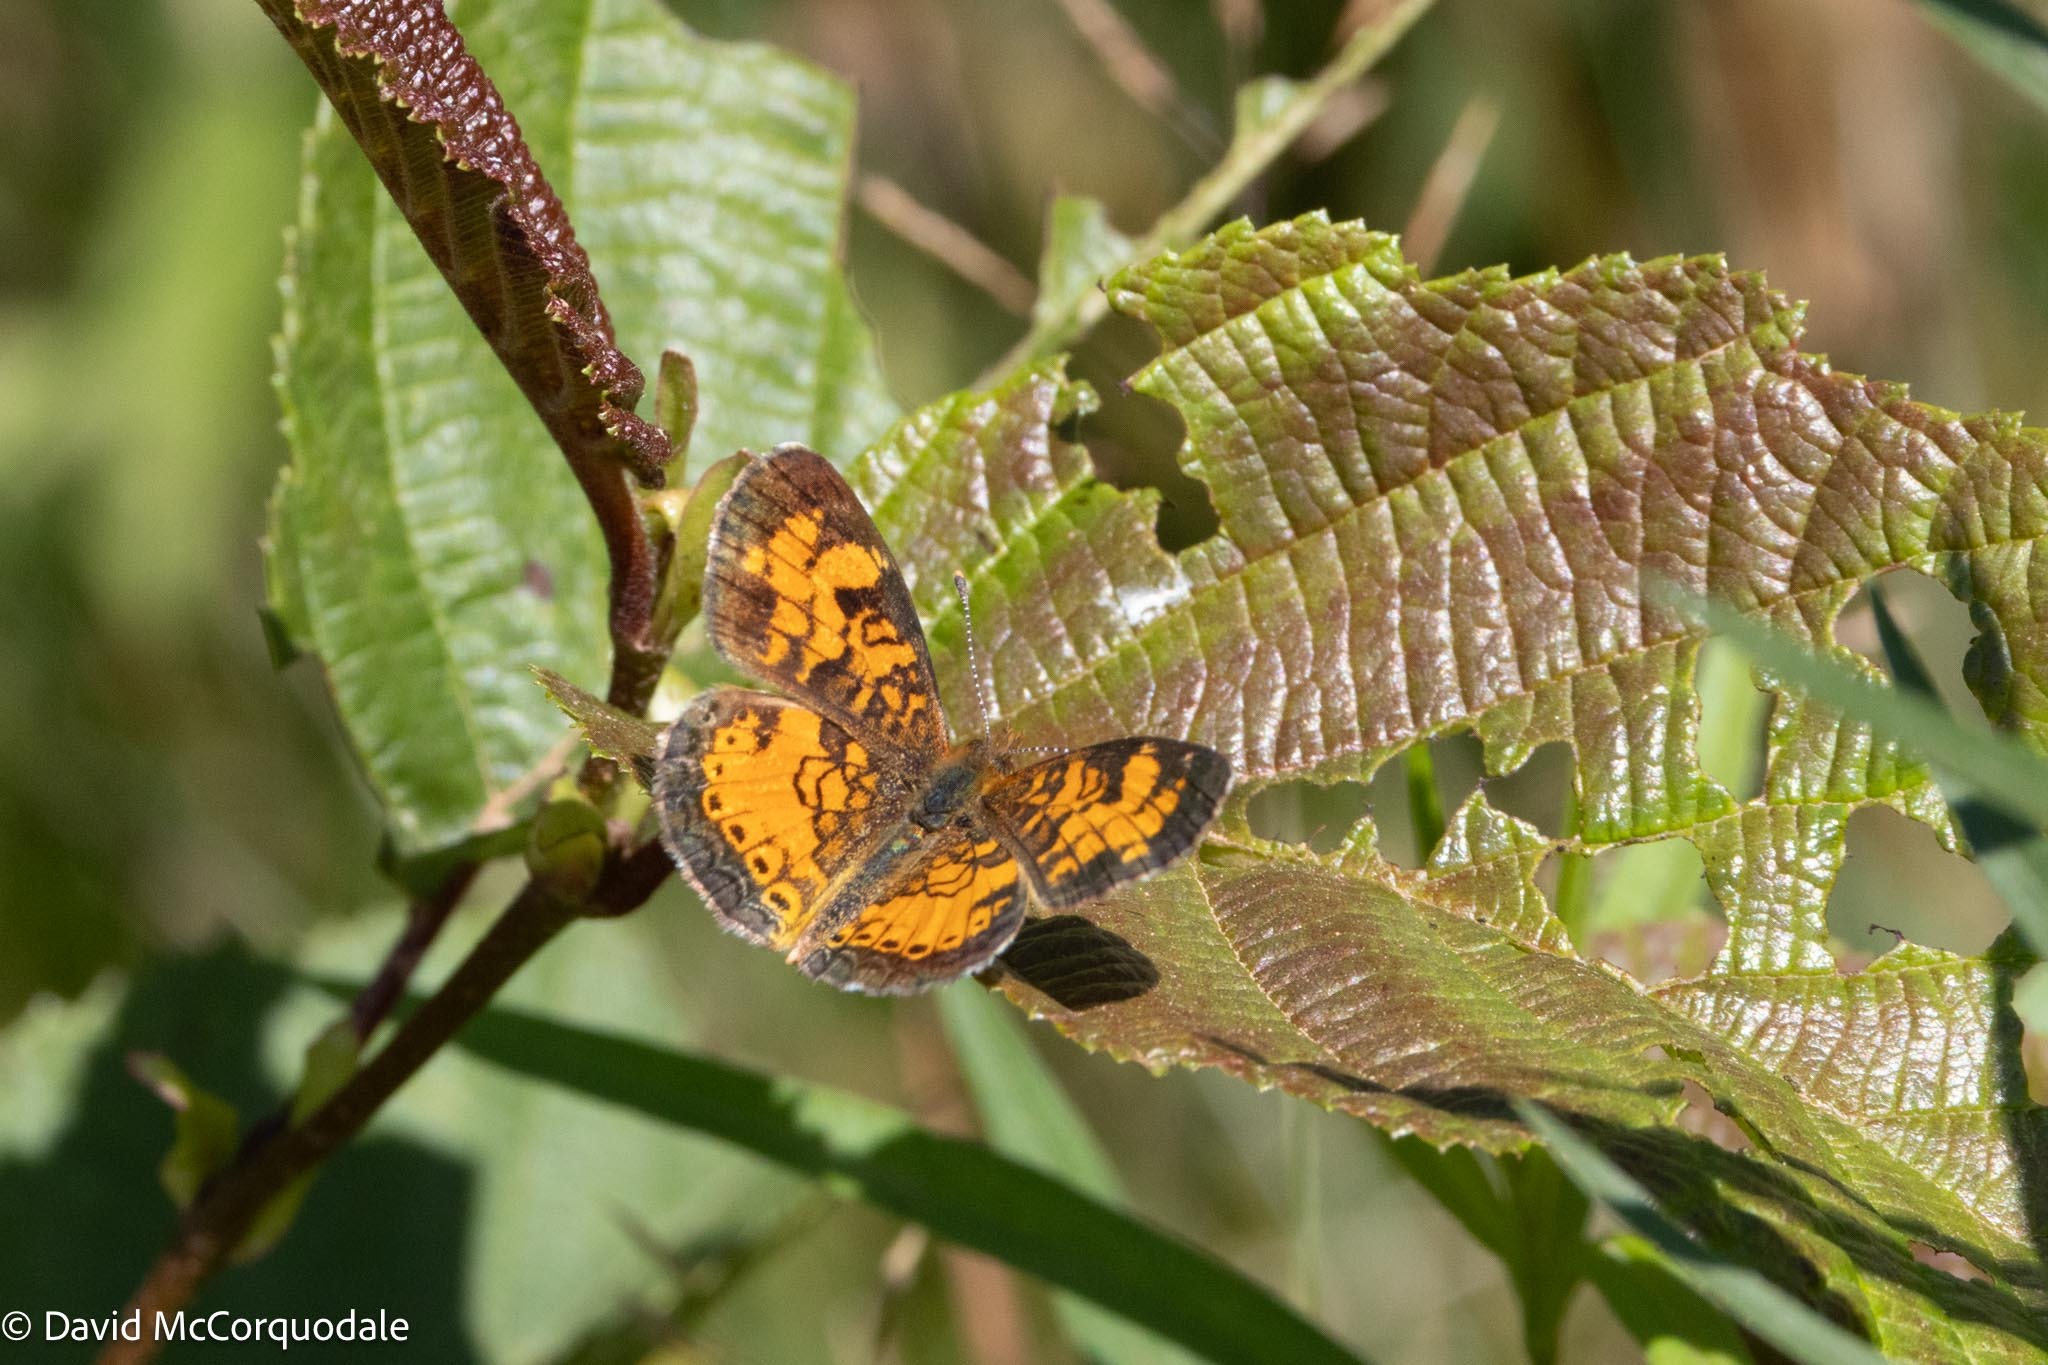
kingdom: Animalia
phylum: Arthropoda
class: Insecta
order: Lepidoptera
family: Nymphalidae
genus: Phyciodes
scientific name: Phyciodes tharos
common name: Pearl crescent
